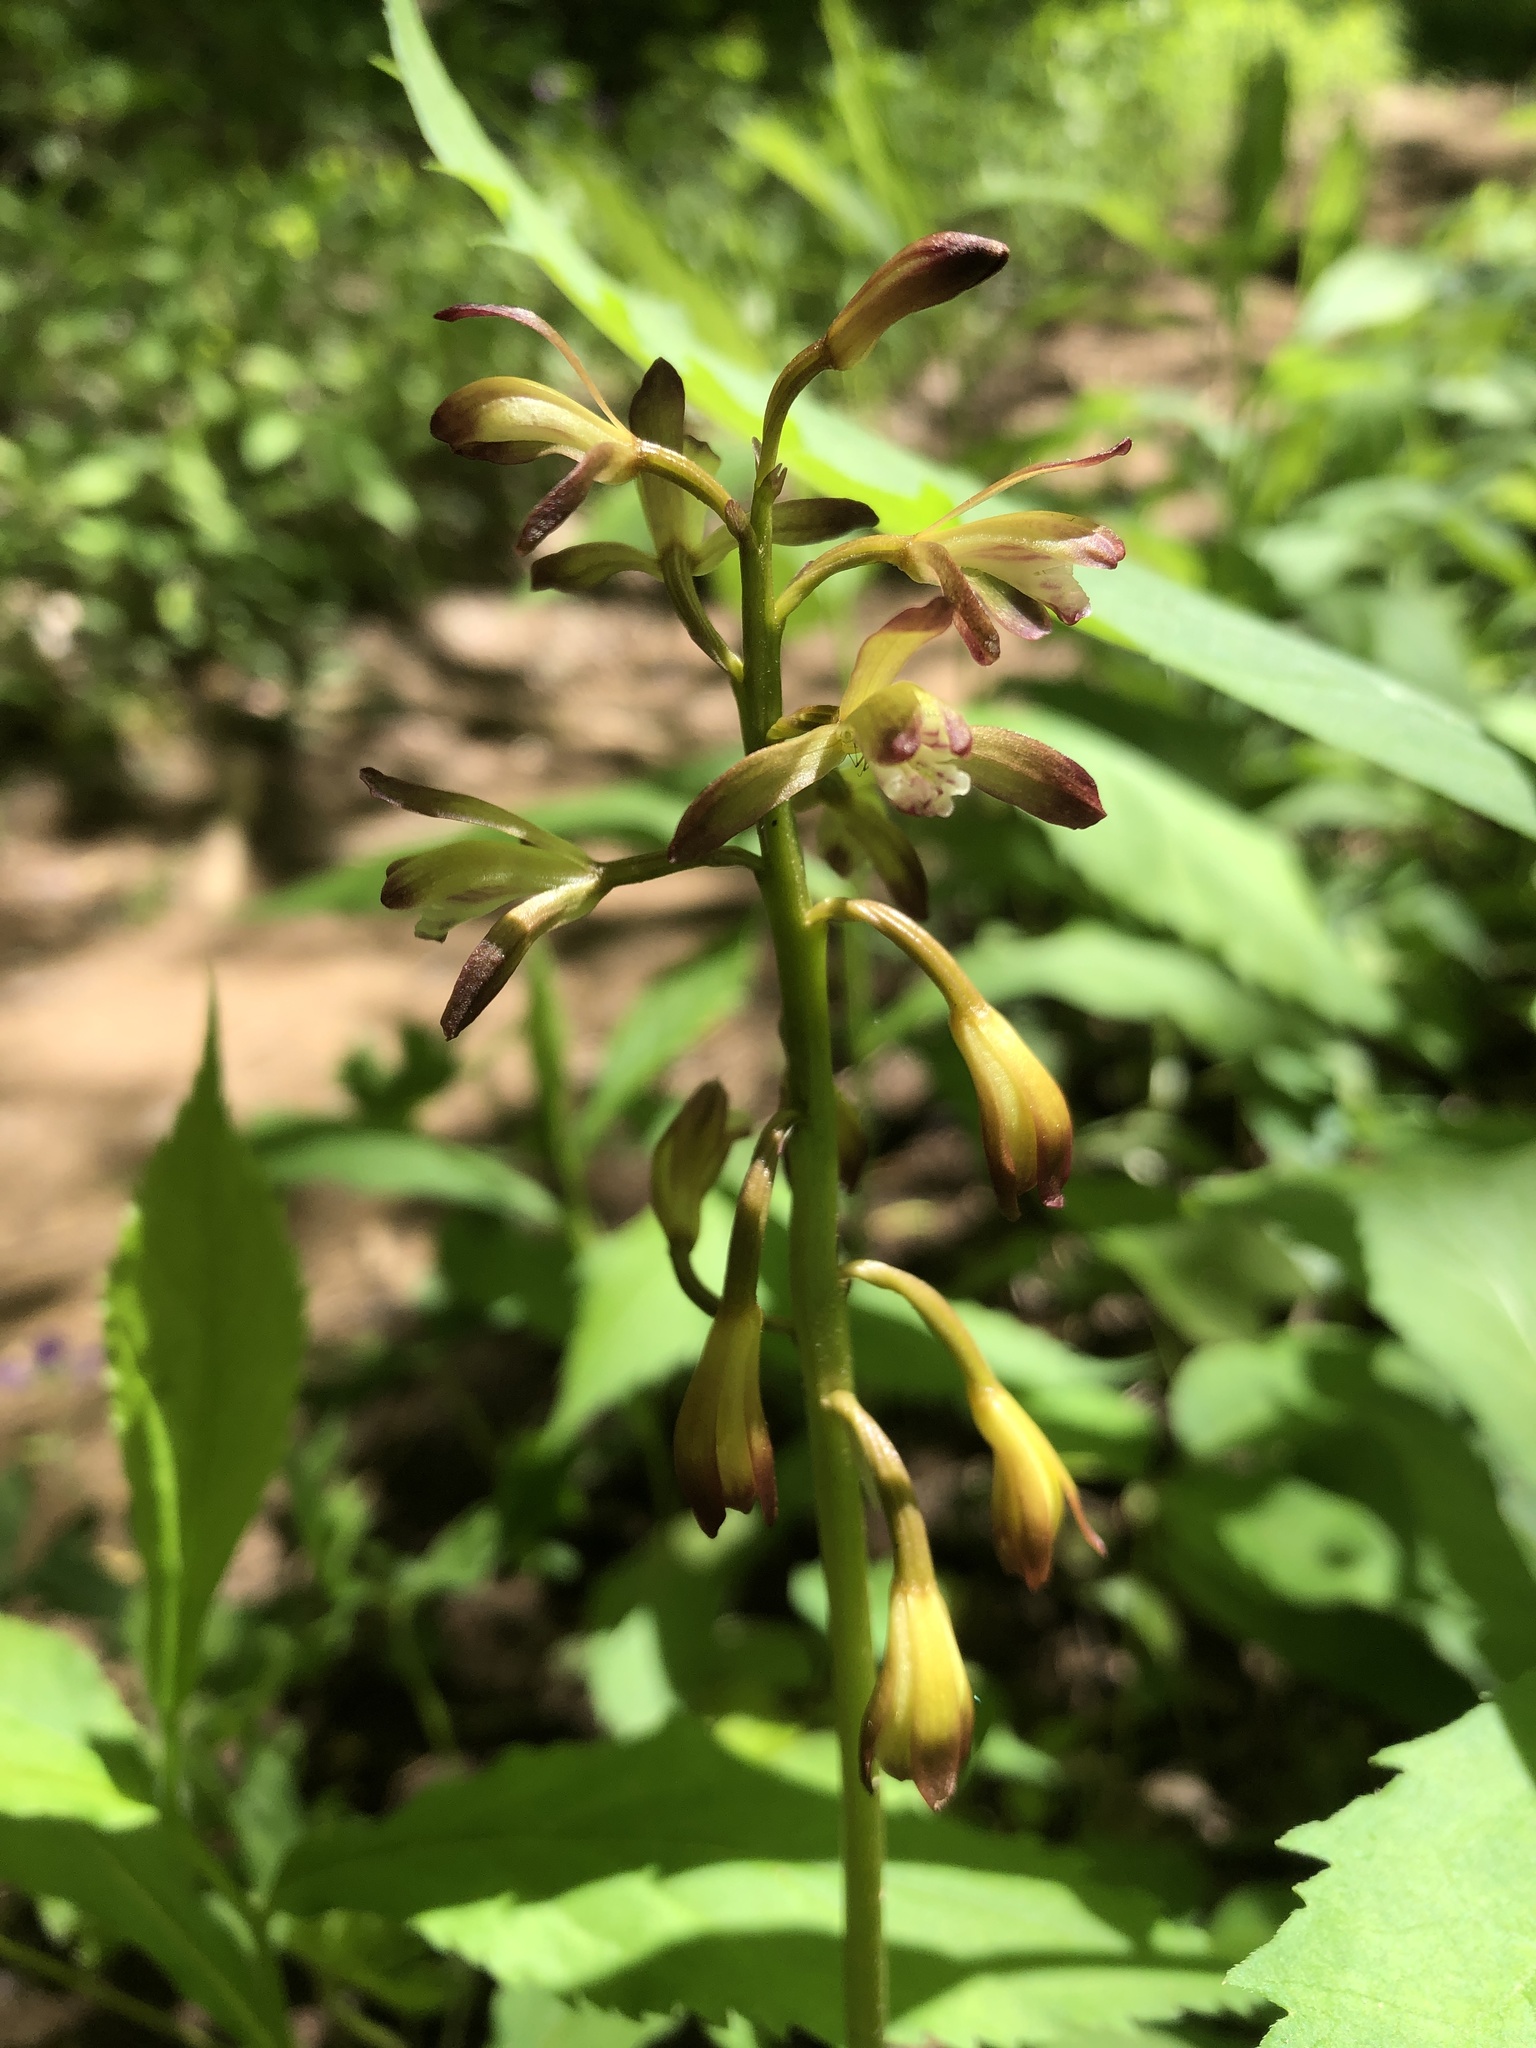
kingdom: Plantae
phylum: Tracheophyta
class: Liliopsida
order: Asparagales
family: Orchidaceae
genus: Aplectrum
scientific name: Aplectrum hyemale
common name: Adam-and-eve
